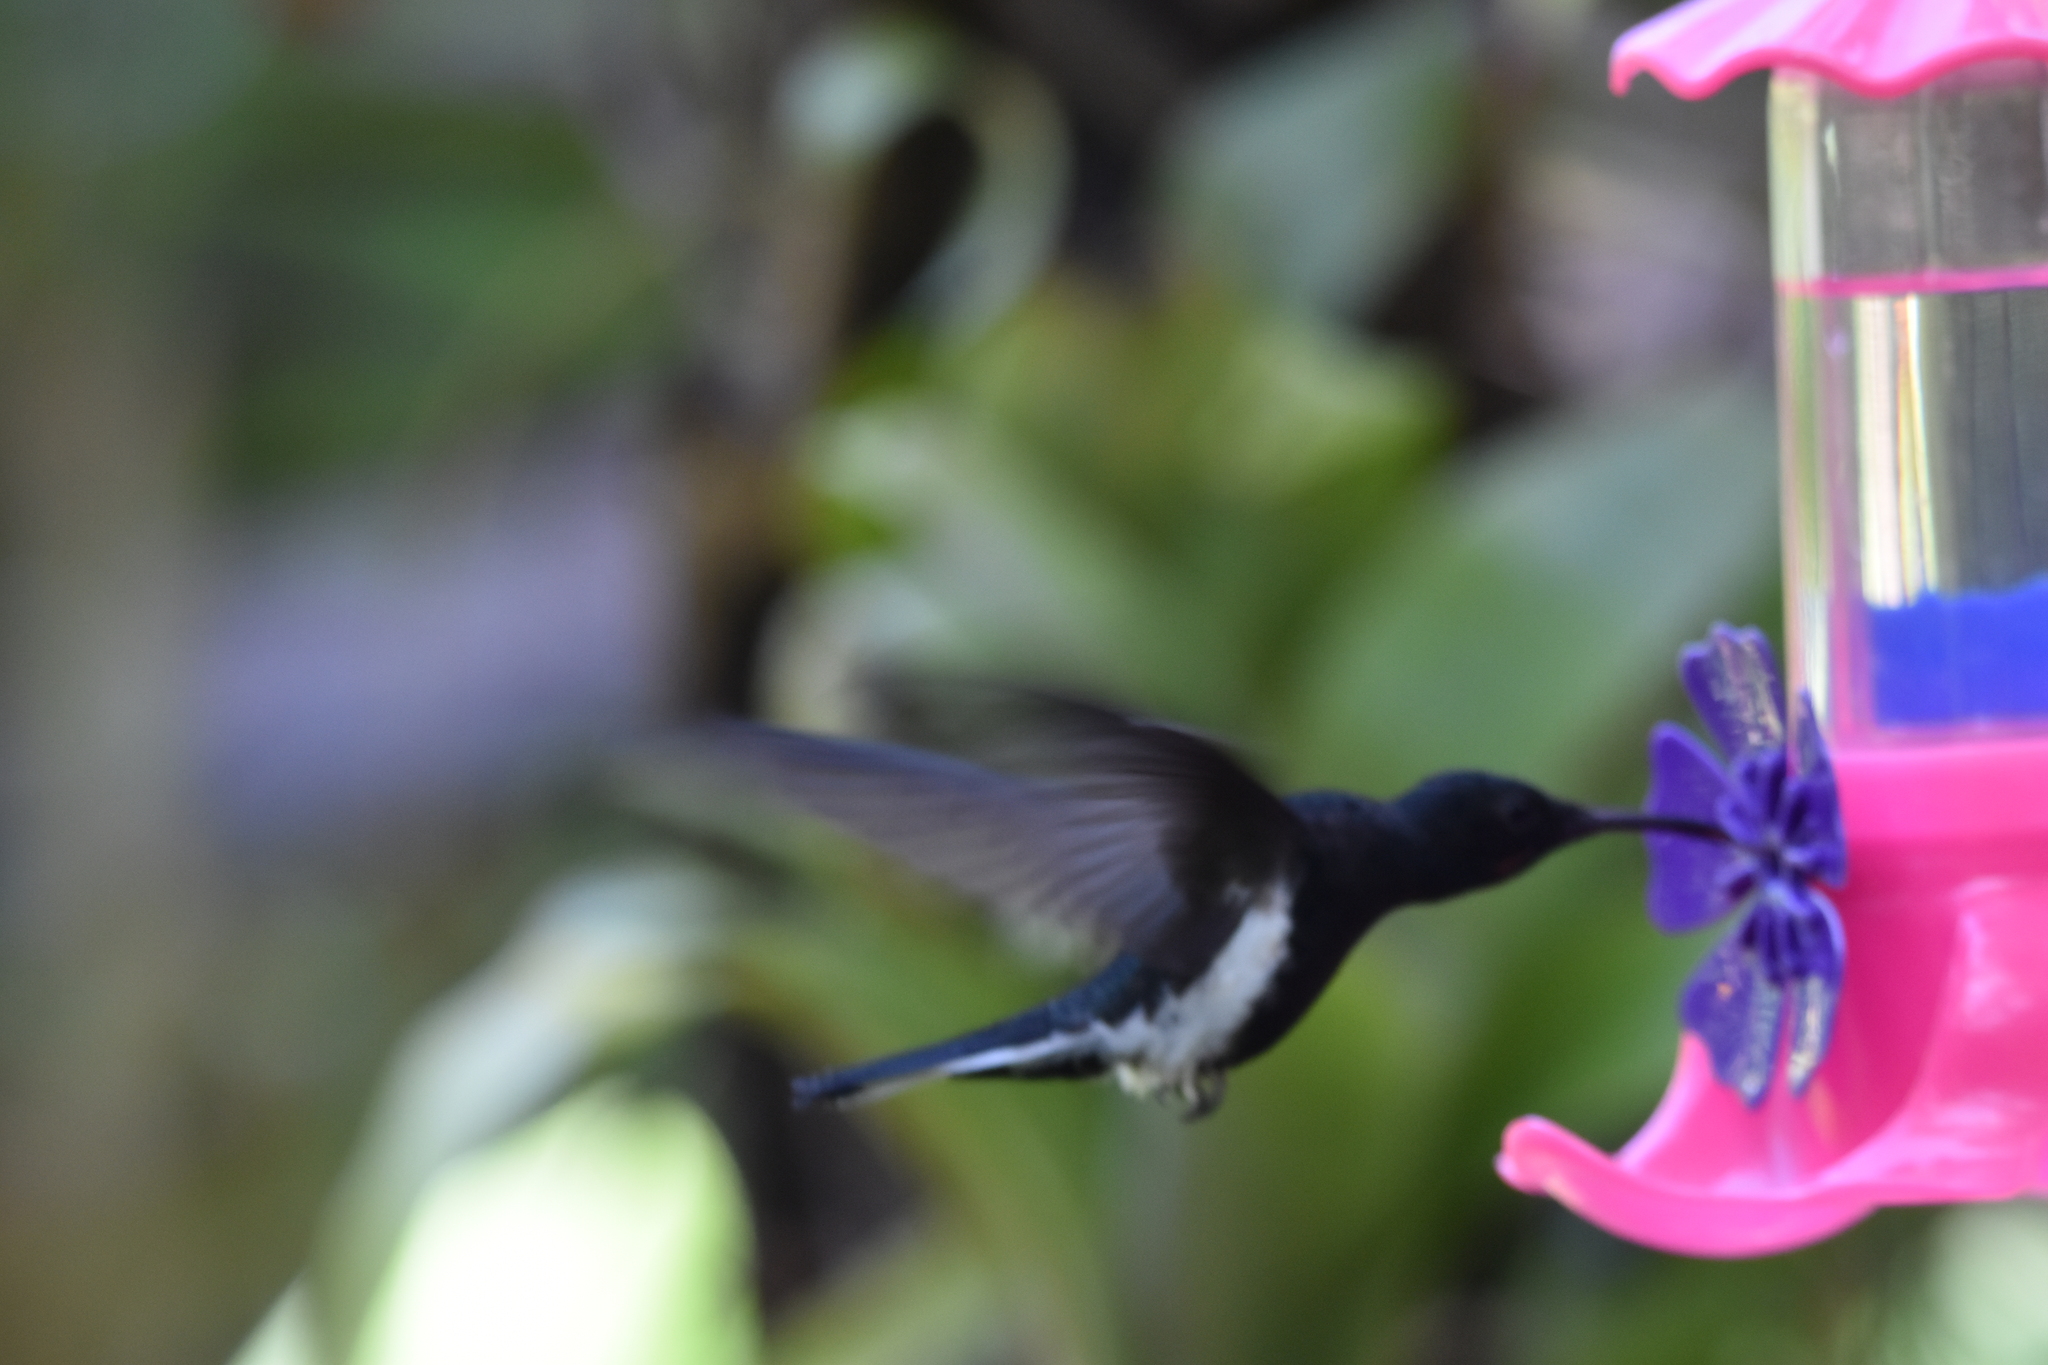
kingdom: Animalia
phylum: Chordata
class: Aves
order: Apodiformes
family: Trochilidae
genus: Florisuga
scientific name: Florisuga fusca
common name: Black jacobin
